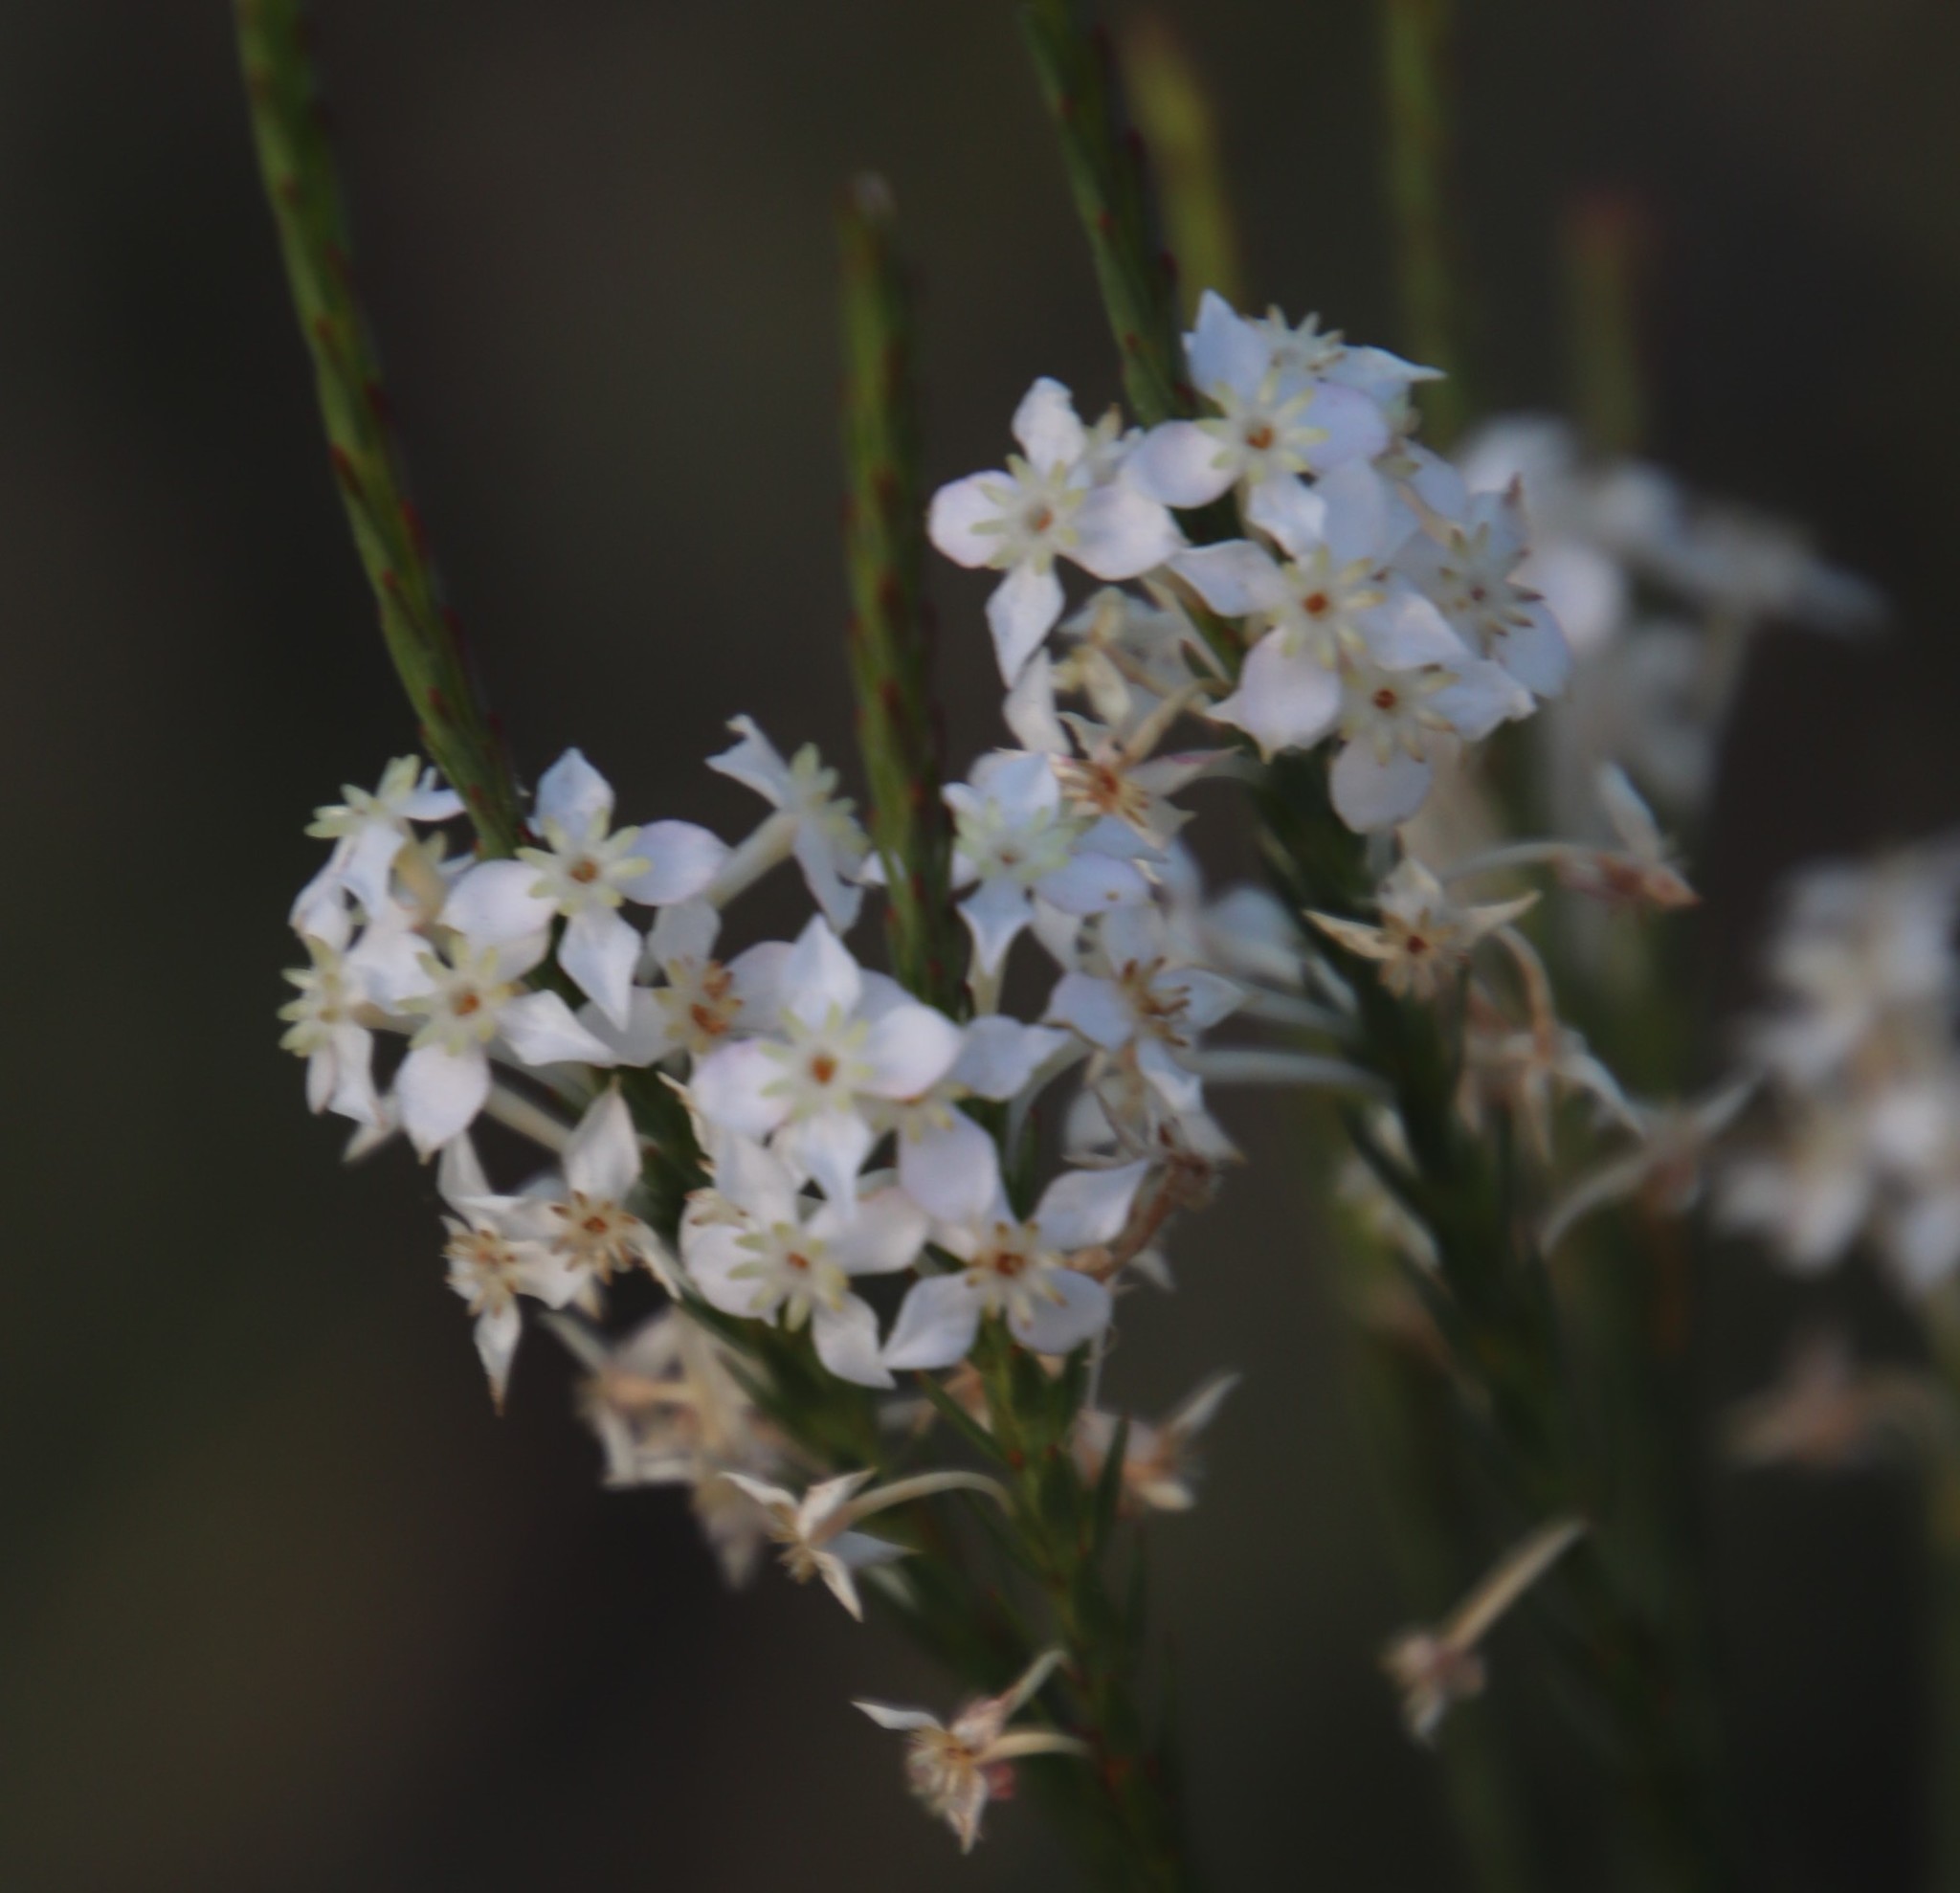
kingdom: Plantae
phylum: Tracheophyta
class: Magnoliopsida
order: Malvales
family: Thymelaeaceae
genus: Struthiola
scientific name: Struthiola dodecandra
